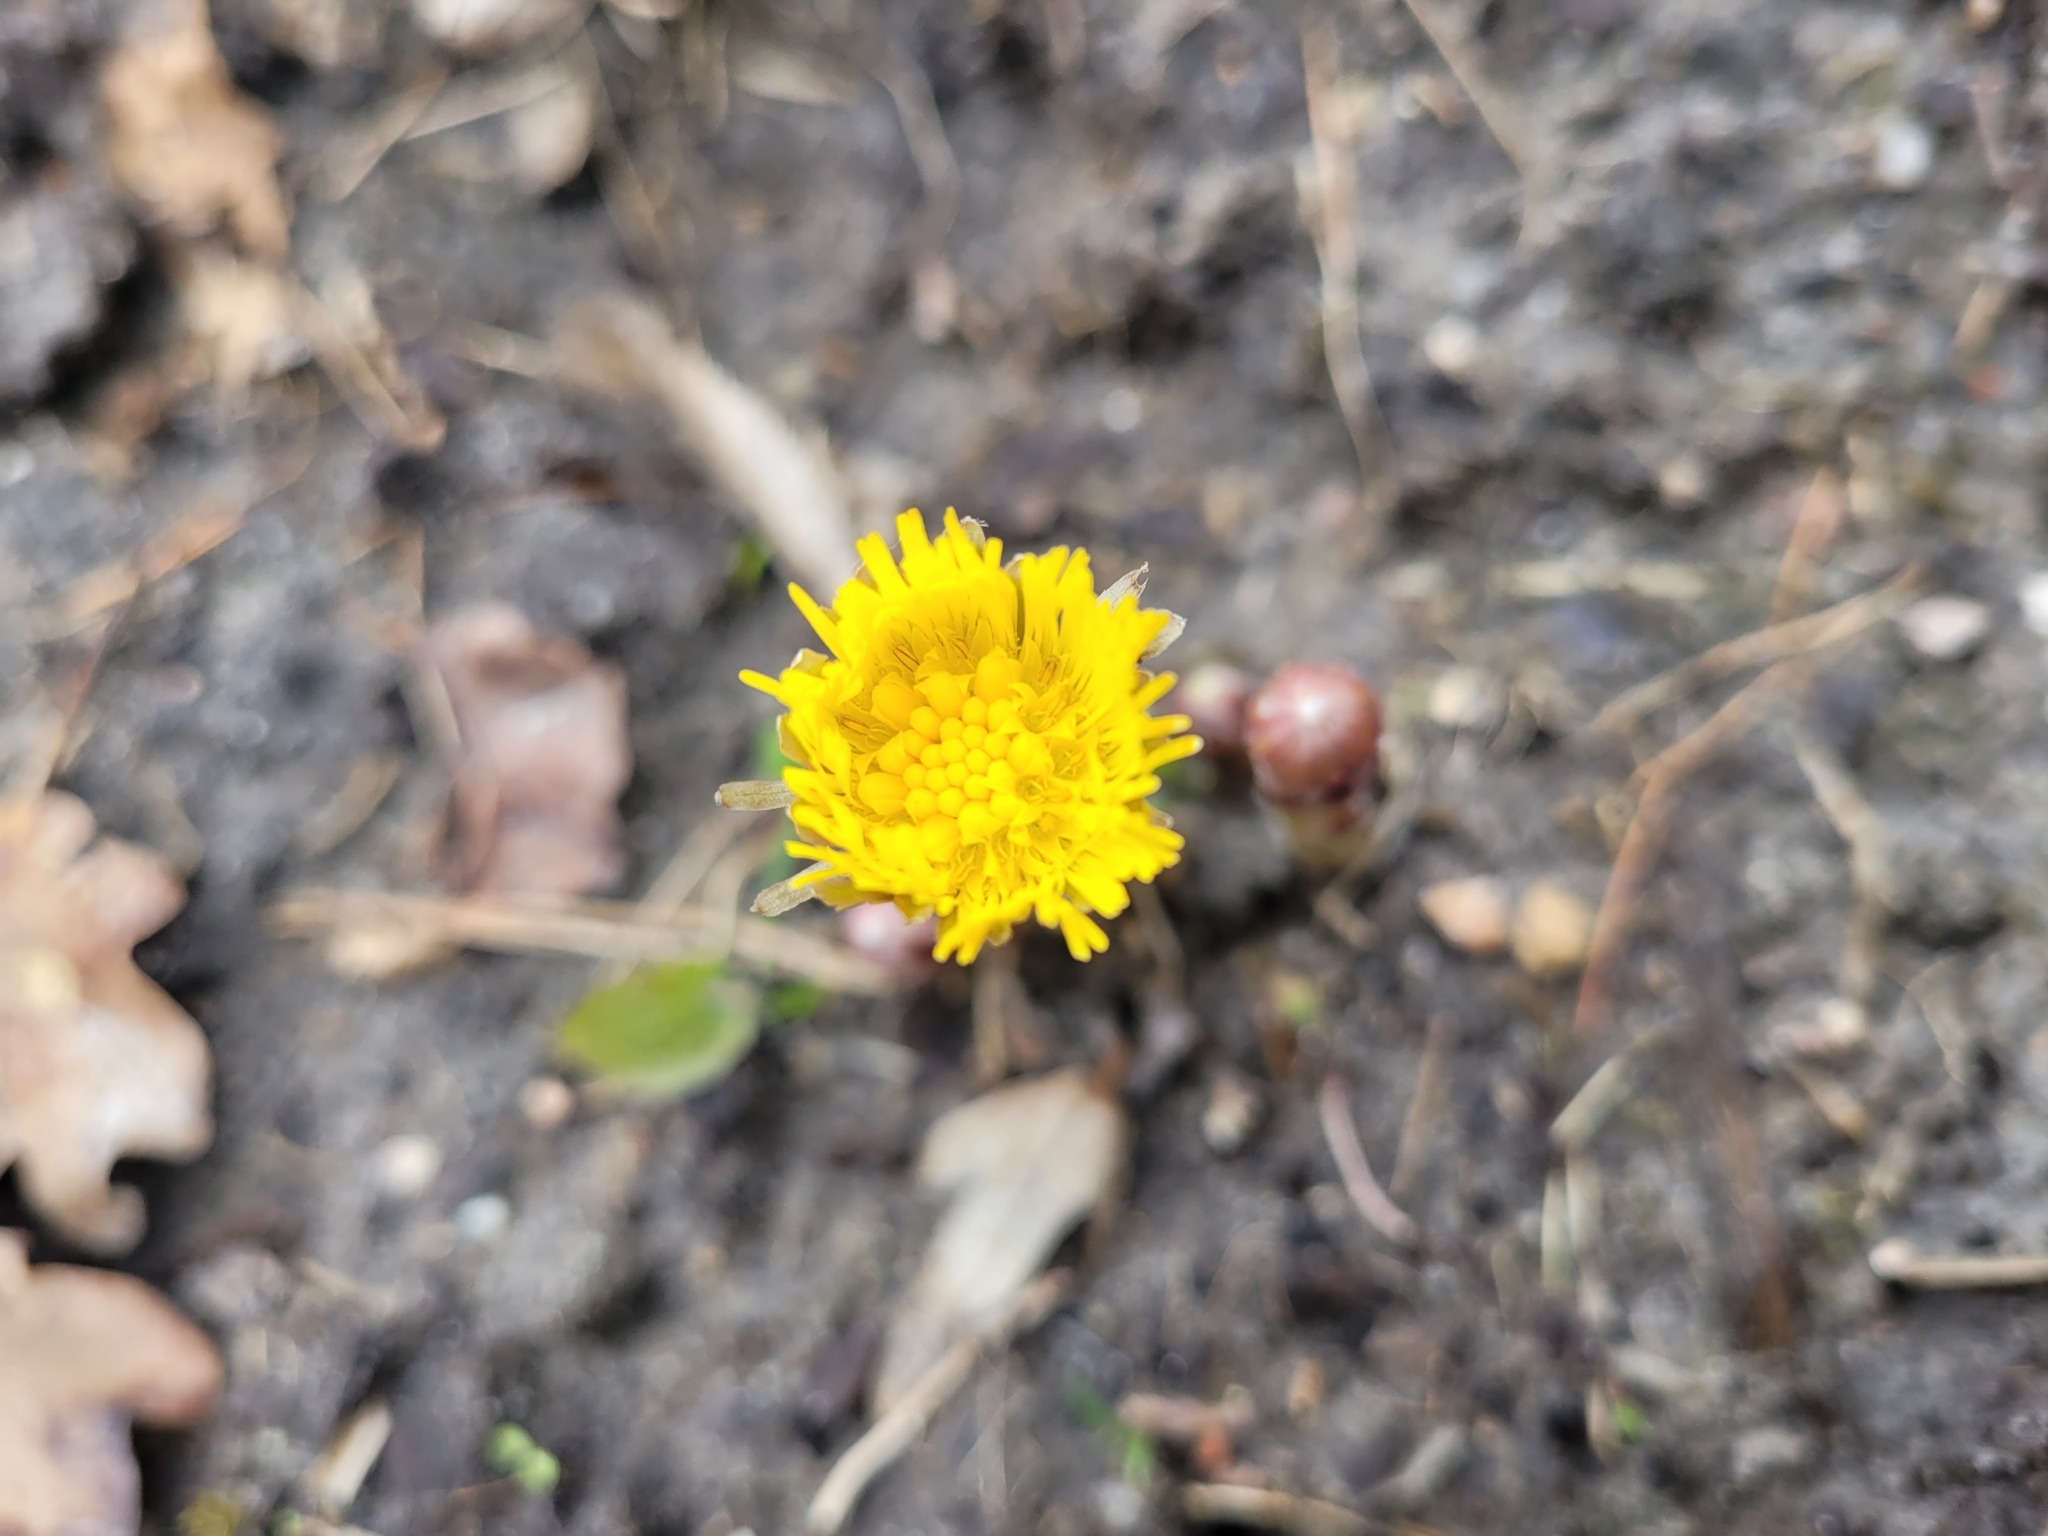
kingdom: Plantae
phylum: Tracheophyta
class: Magnoliopsida
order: Asterales
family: Asteraceae
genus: Tussilago
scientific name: Tussilago farfara
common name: Coltsfoot
